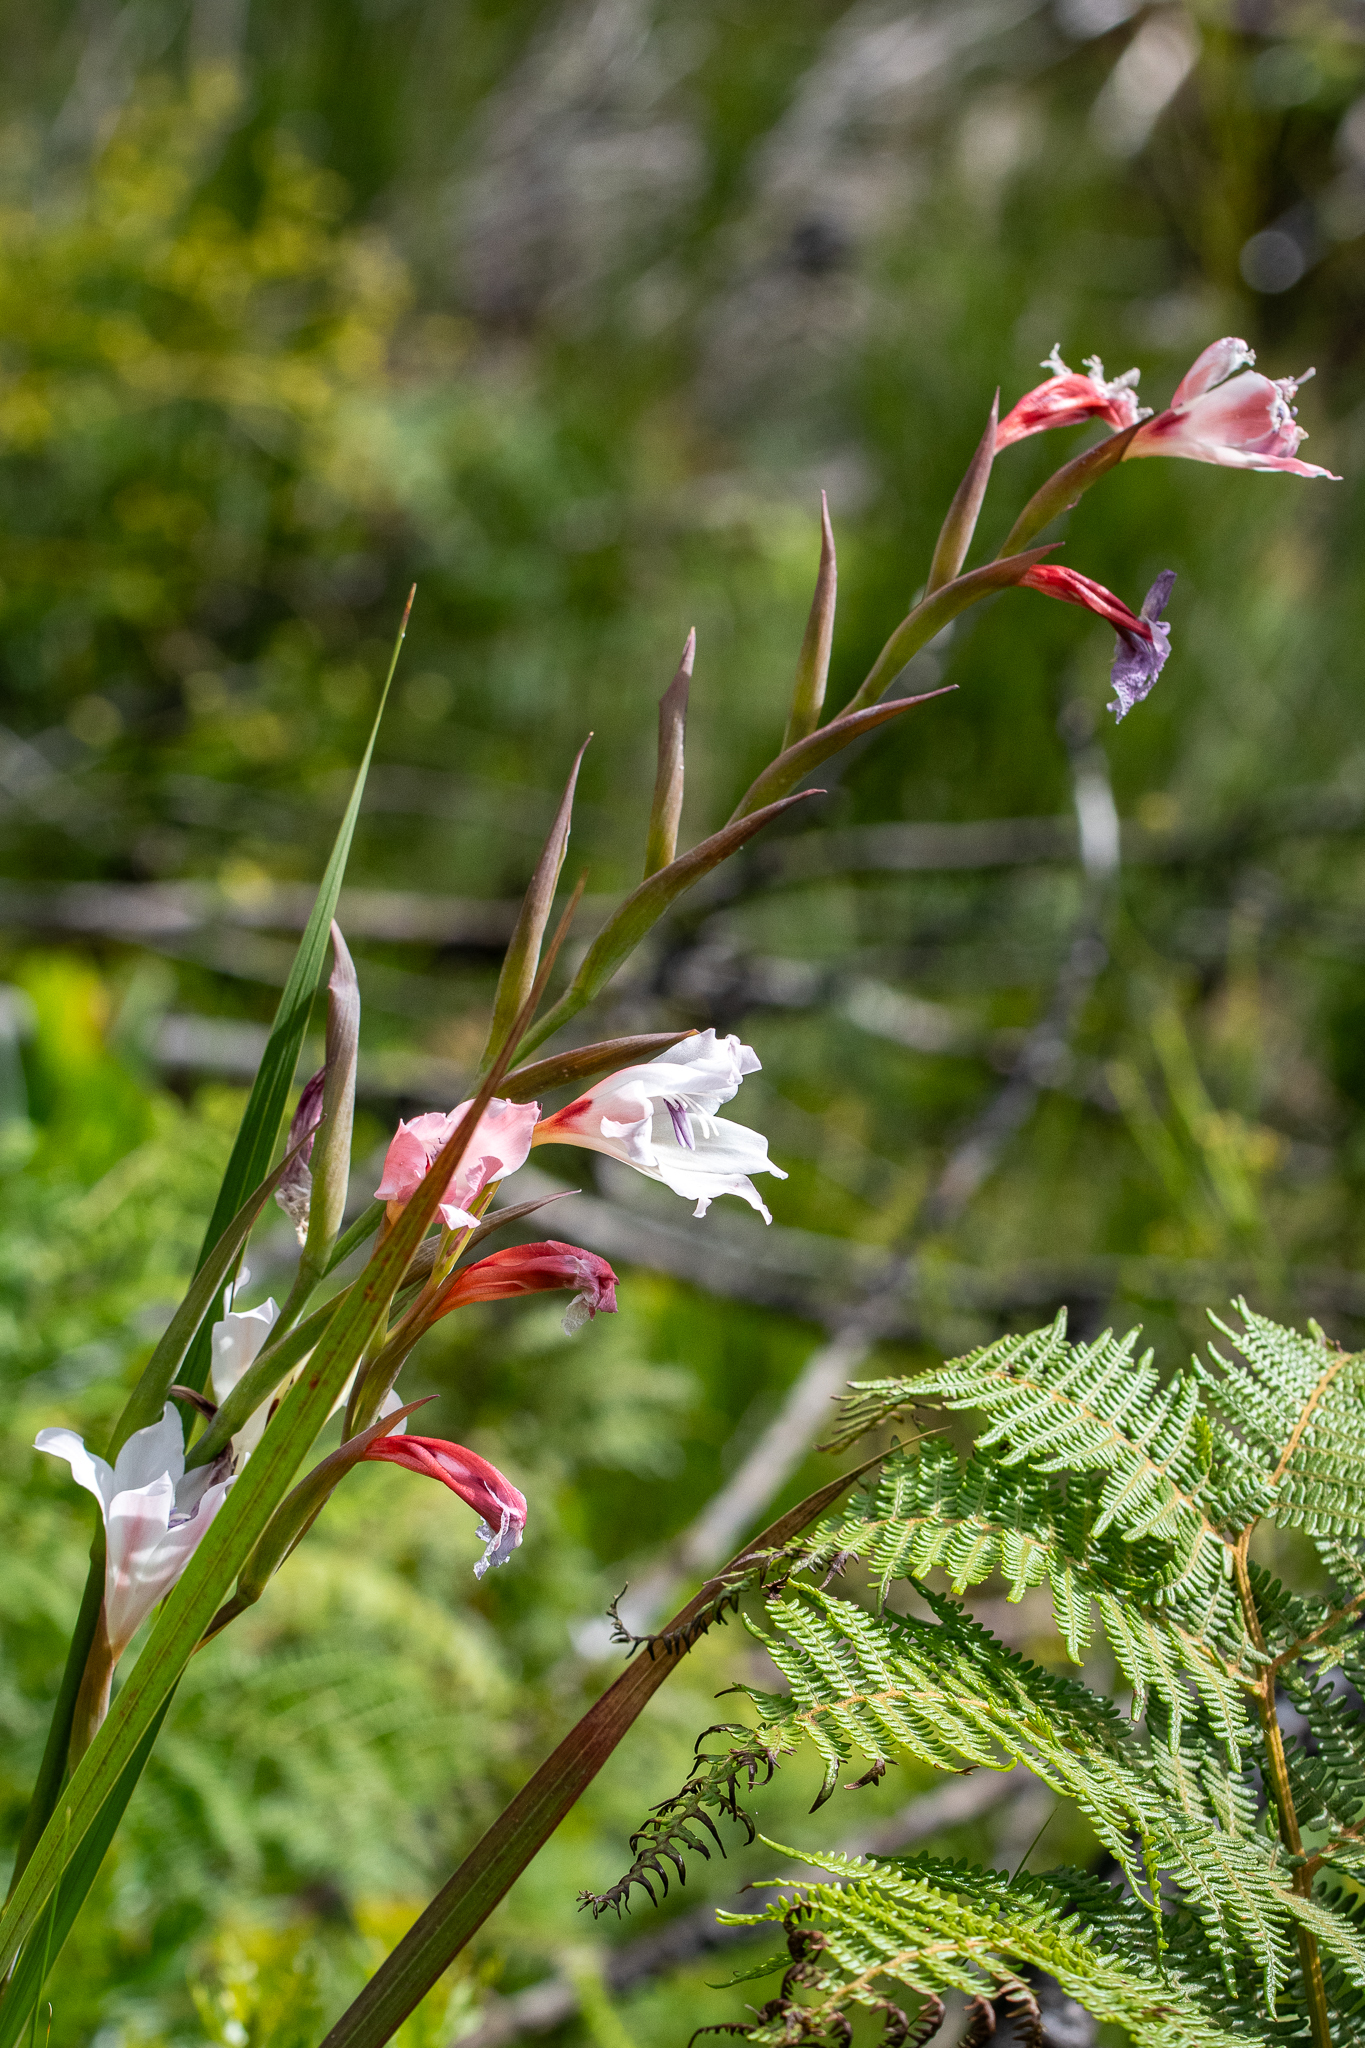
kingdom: Plantae
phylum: Tracheophyta
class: Liliopsida
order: Asparagales
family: Iridaceae
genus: Gladiolus
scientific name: Gladiolus carneus
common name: Painted-lady
